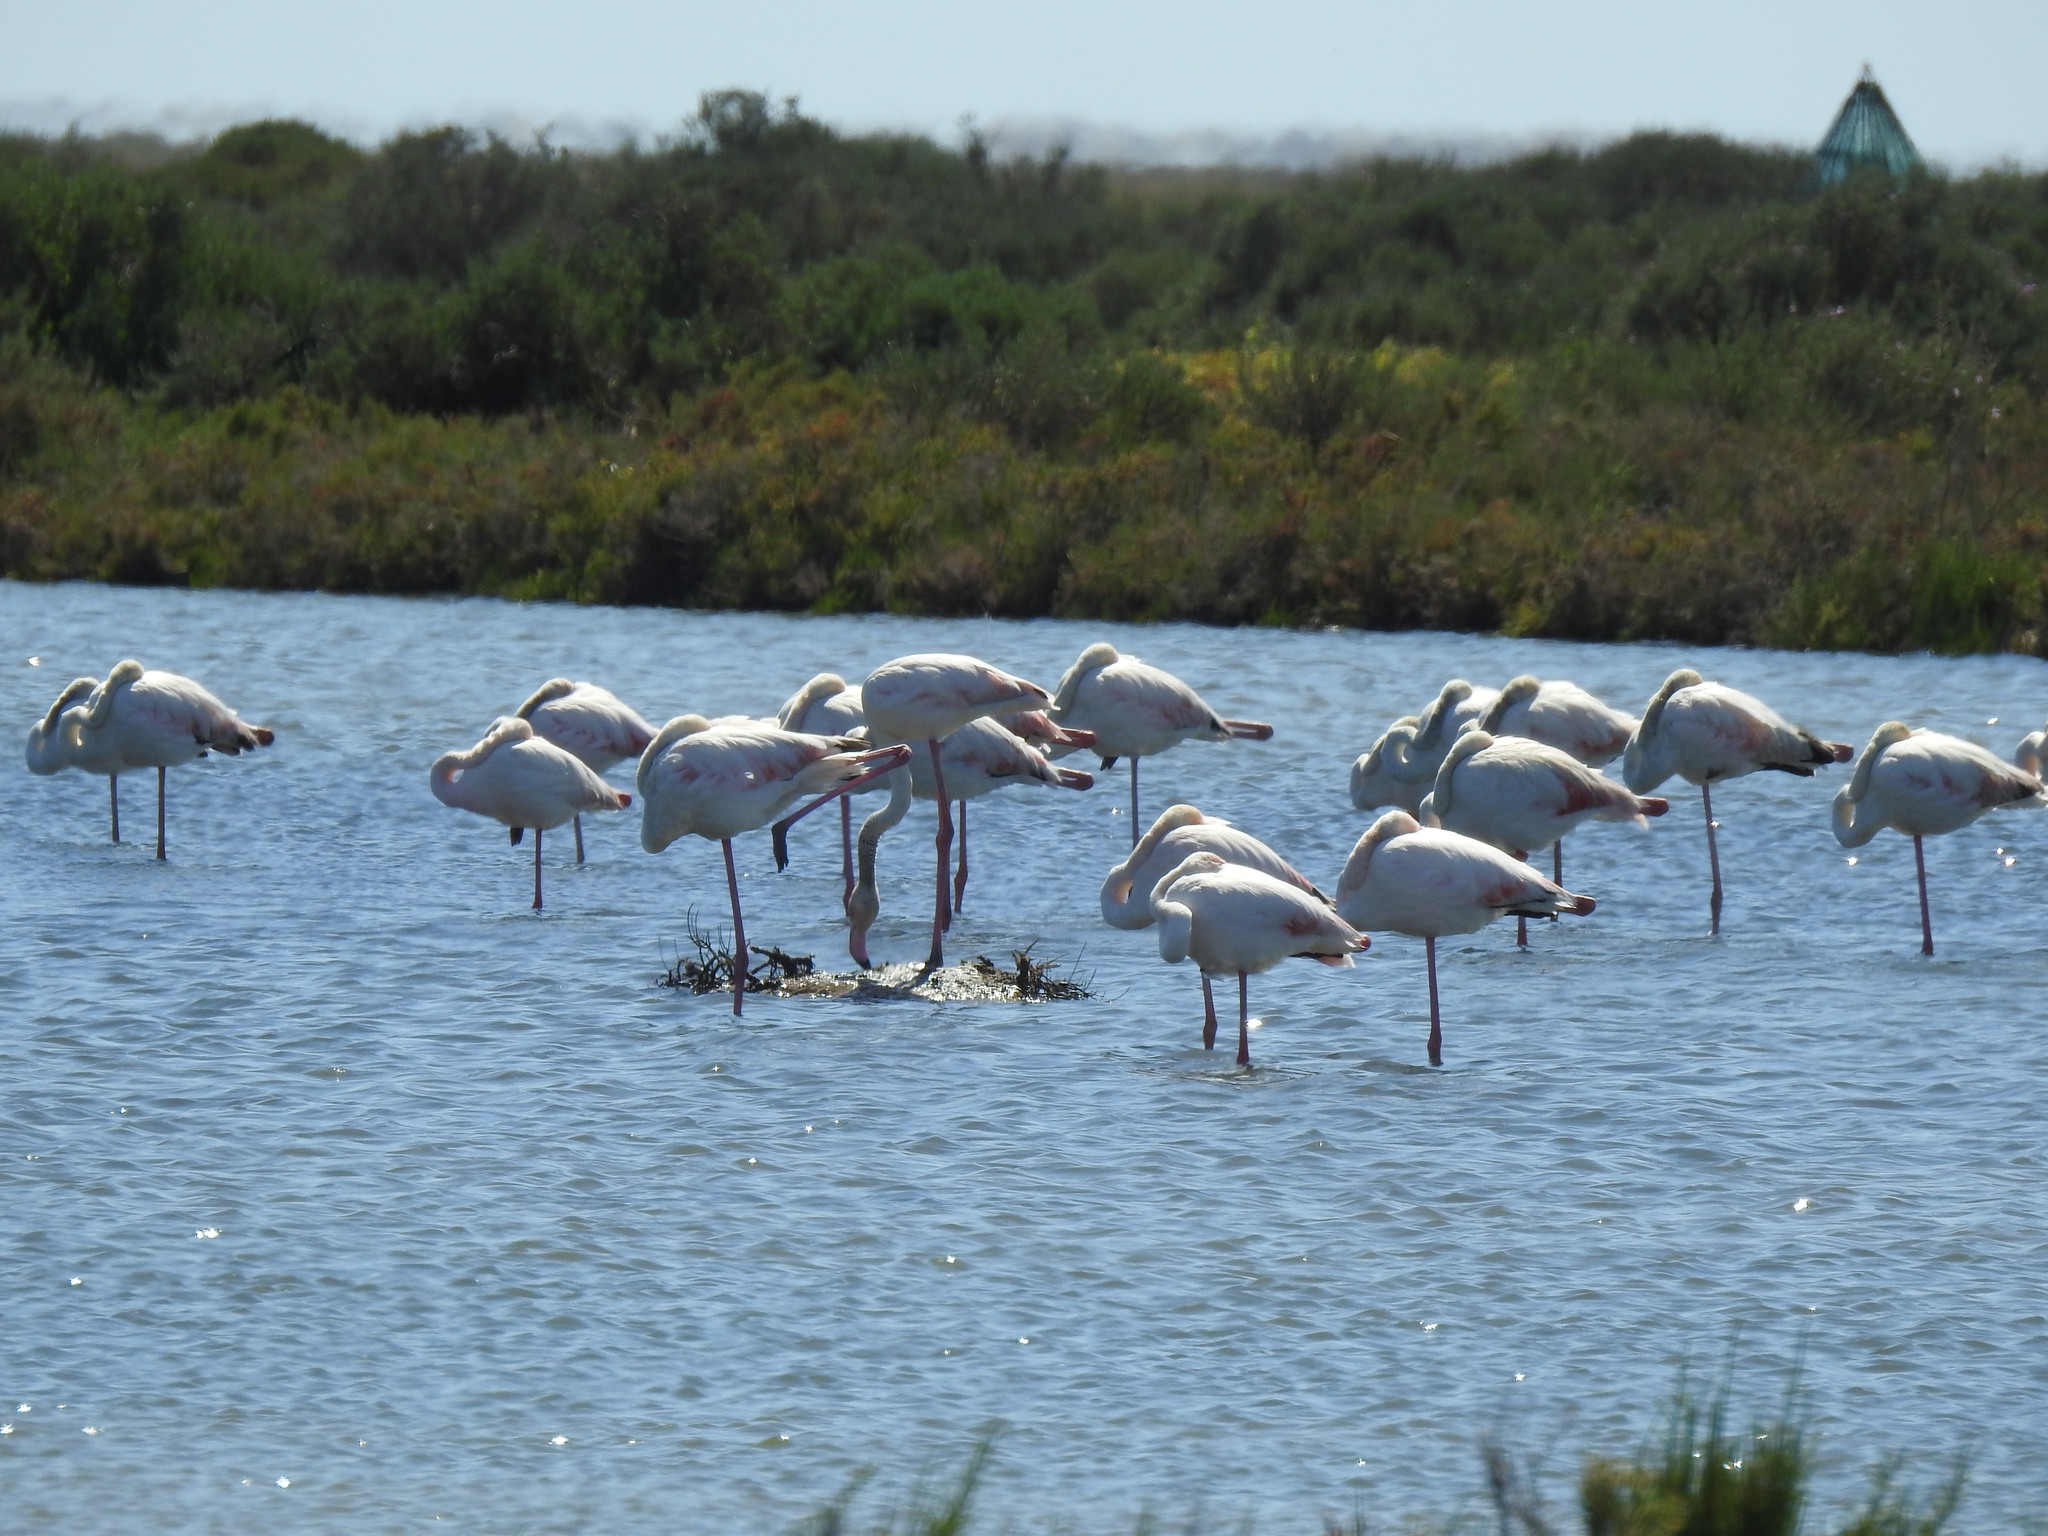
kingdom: Animalia
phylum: Chordata
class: Aves
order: Phoenicopteriformes
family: Phoenicopteridae
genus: Phoenicopterus
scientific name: Phoenicopterus roseus
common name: Greater flamingo
